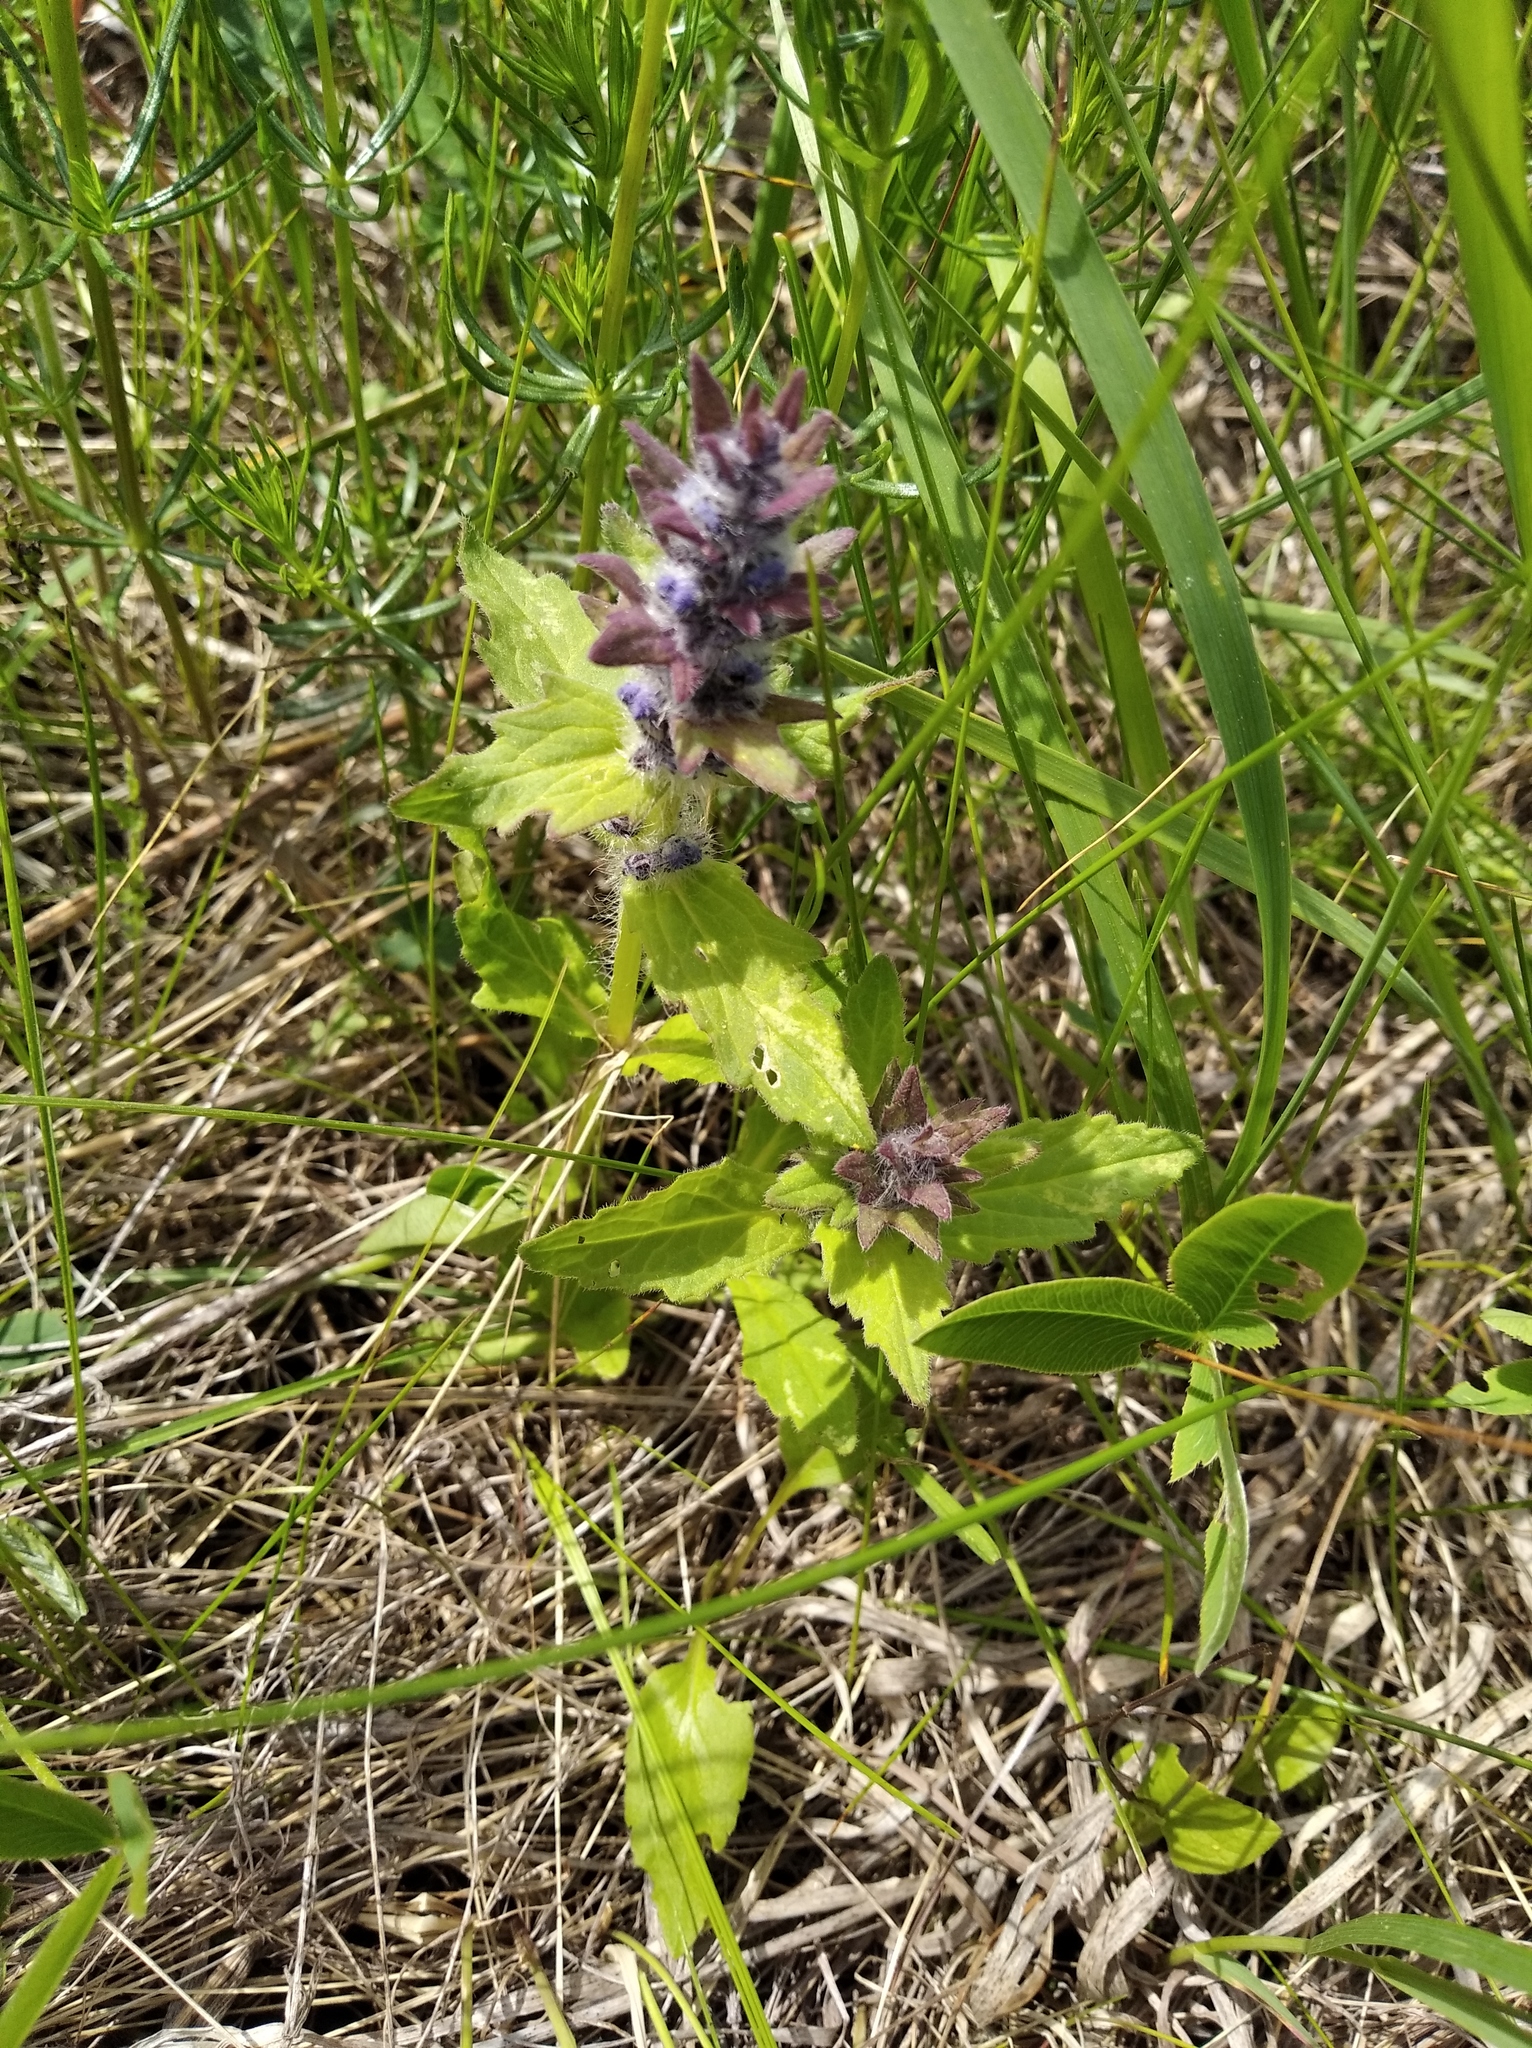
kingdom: Plantae
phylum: Tracheophyta
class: Magnoliopsida
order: Lamiales
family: Lamiaceae
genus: Ajuga
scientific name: Ajuga genevensis
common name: Blue bugle
